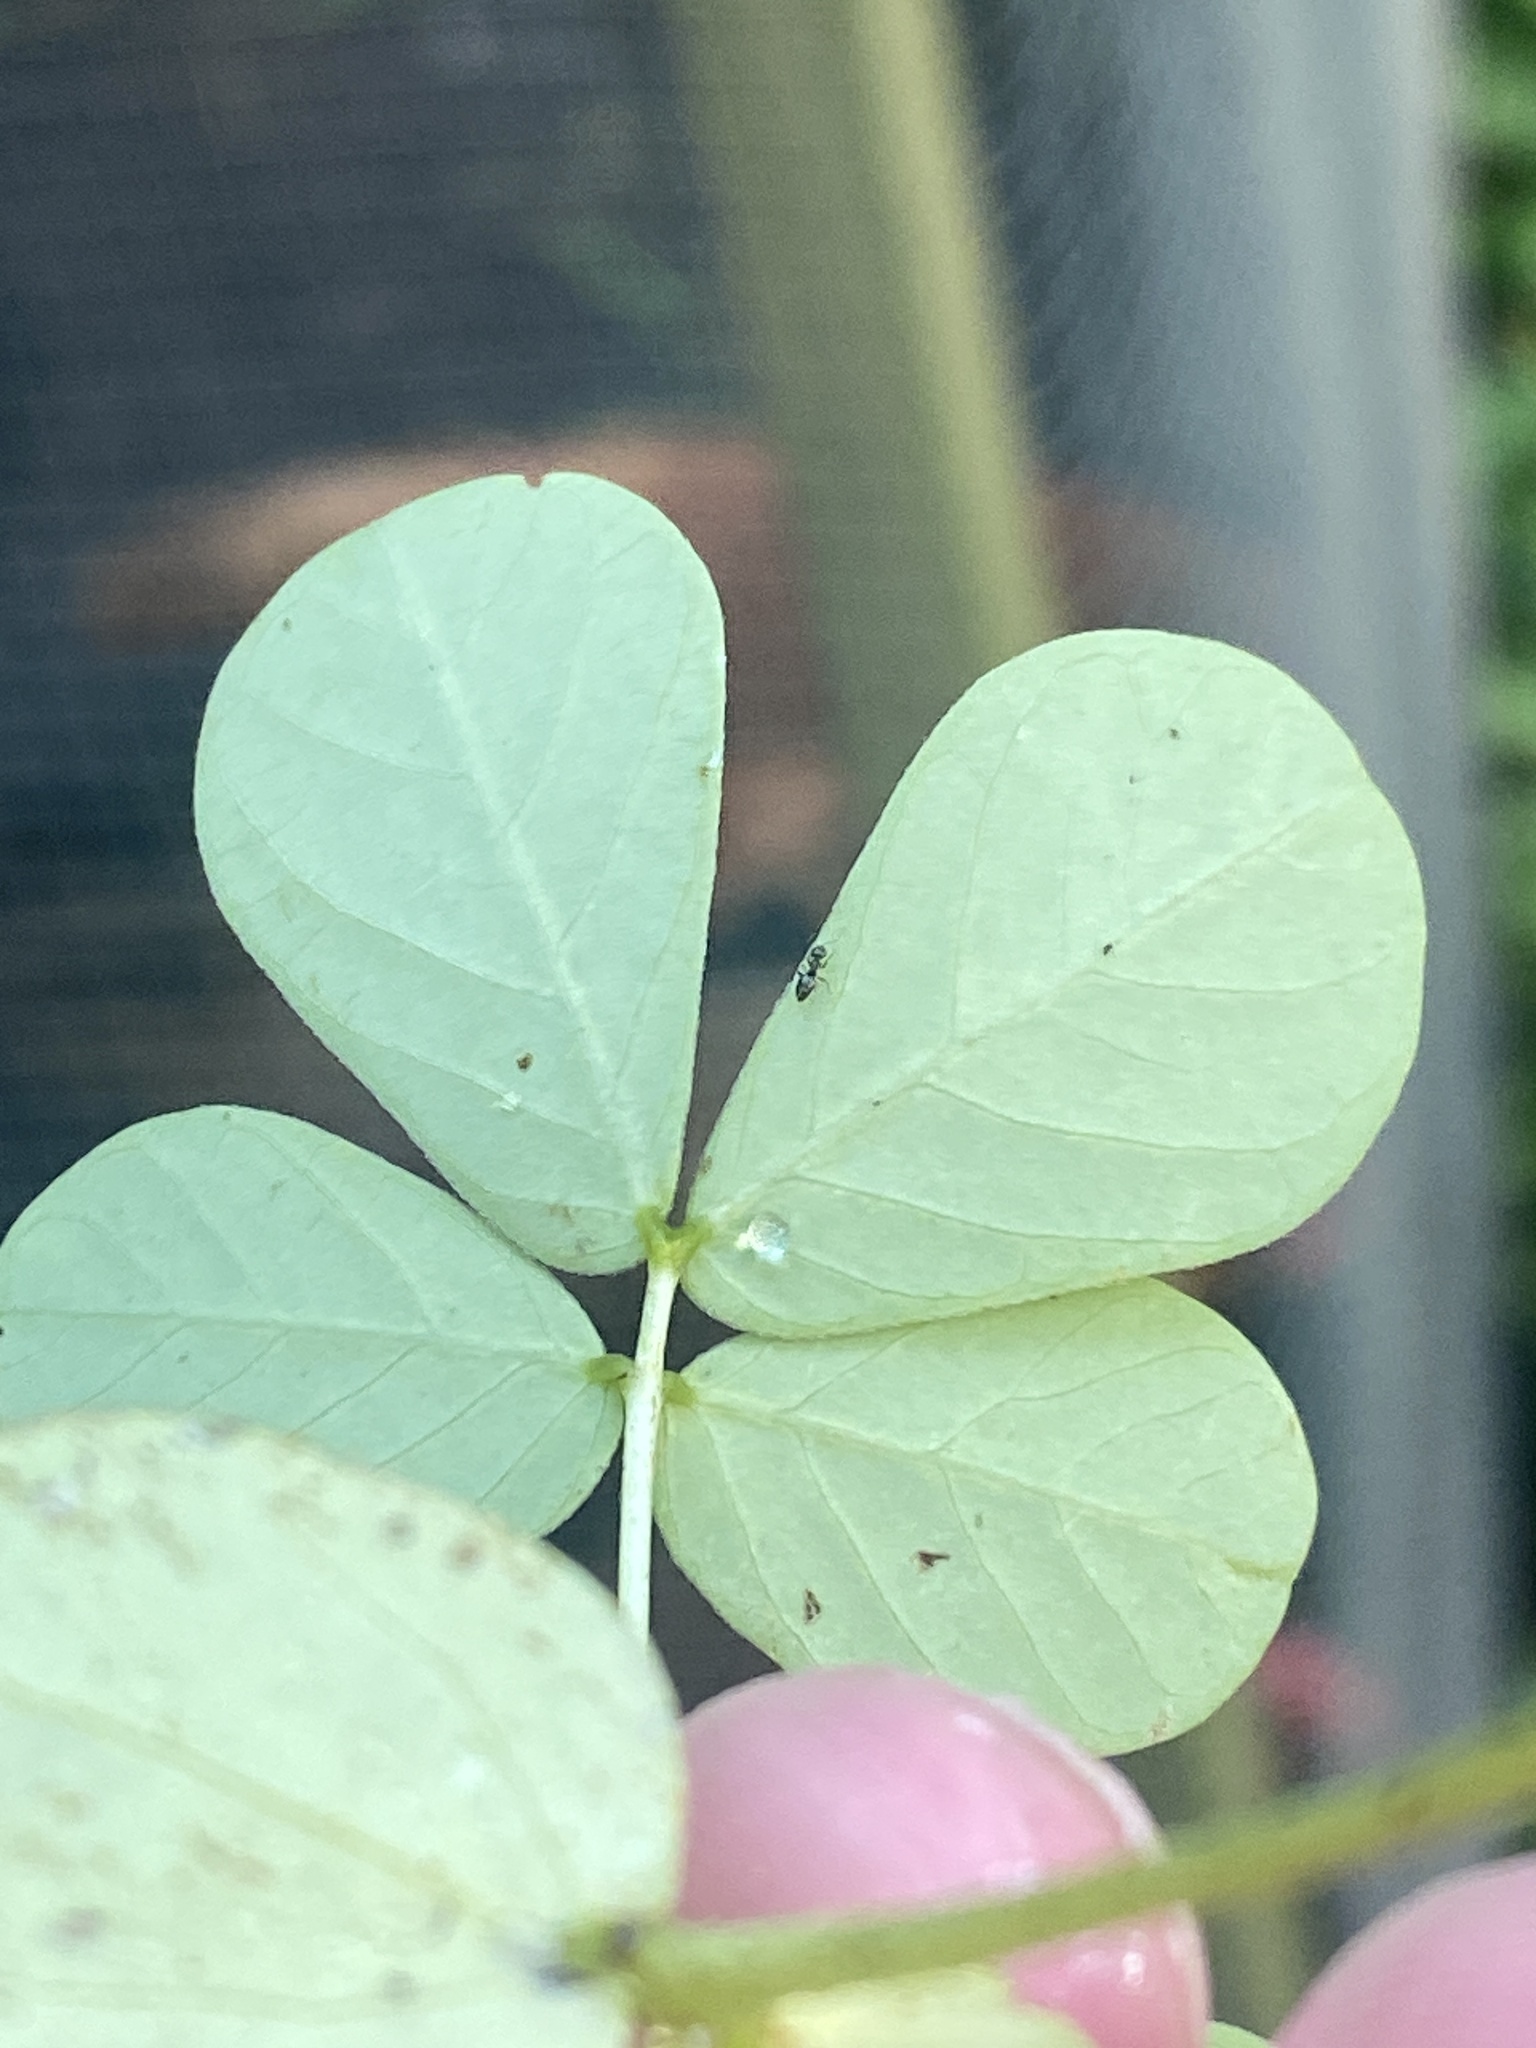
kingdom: Plantae
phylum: Tracheophyta
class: Magnoliopsida
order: Fabales
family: Fabaceae
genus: Senna
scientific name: Senna obtusifolia
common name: Java-bean
